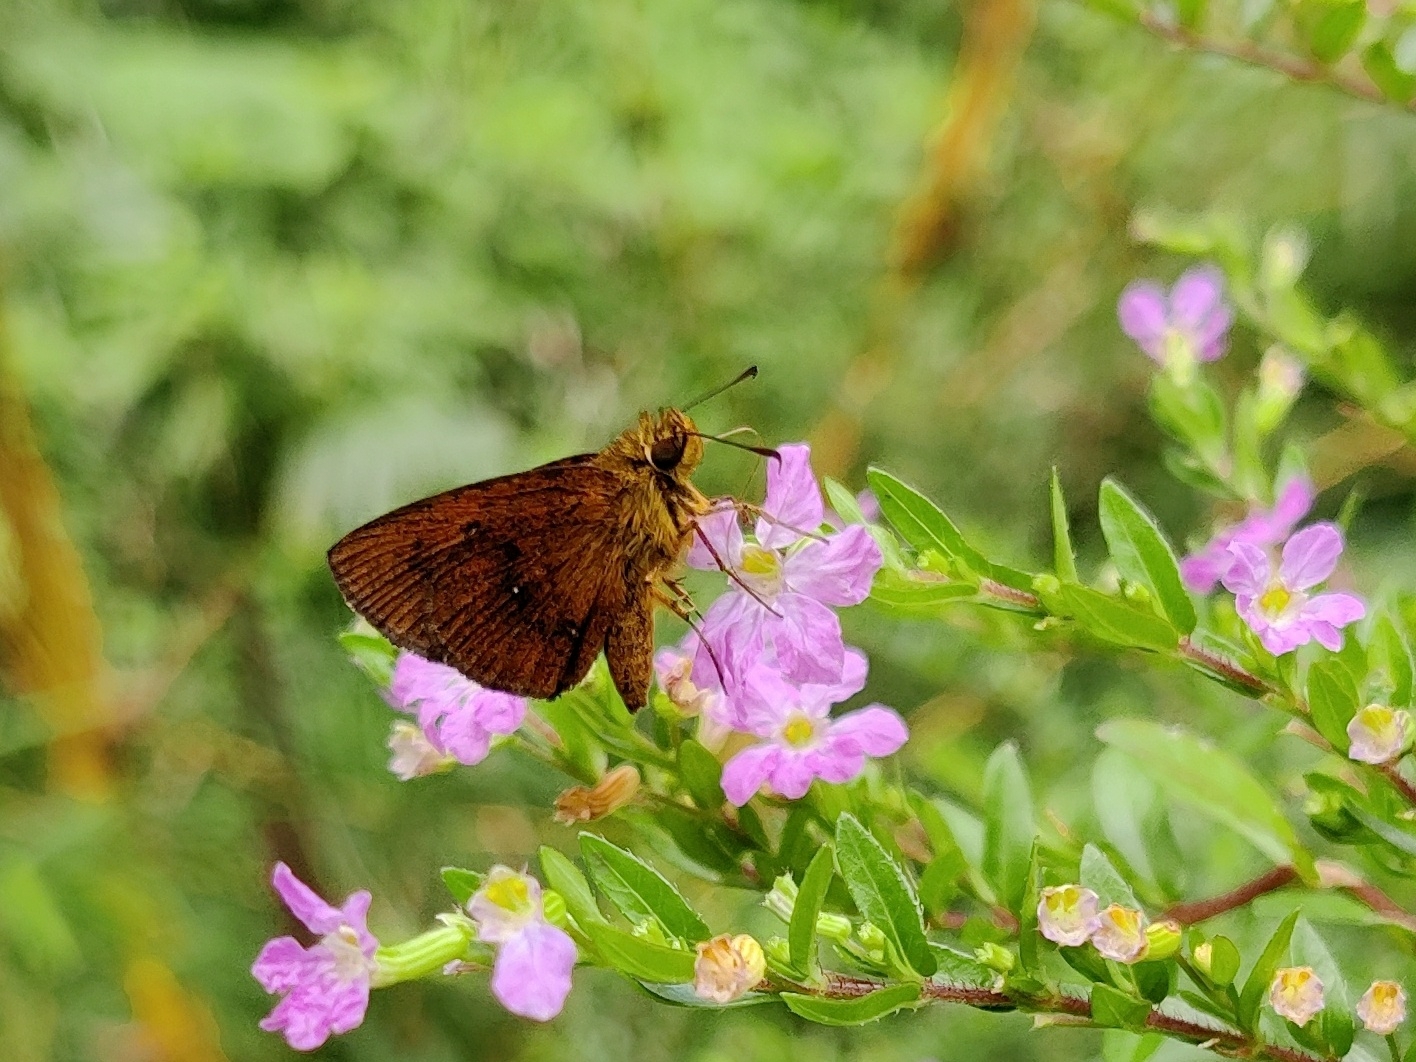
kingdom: Animalia
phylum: Arthropoda
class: Insecta
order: Lepidoptera
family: Hesperiidae
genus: Iambrix
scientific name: Iambrix salsala
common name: Chestnut bob
